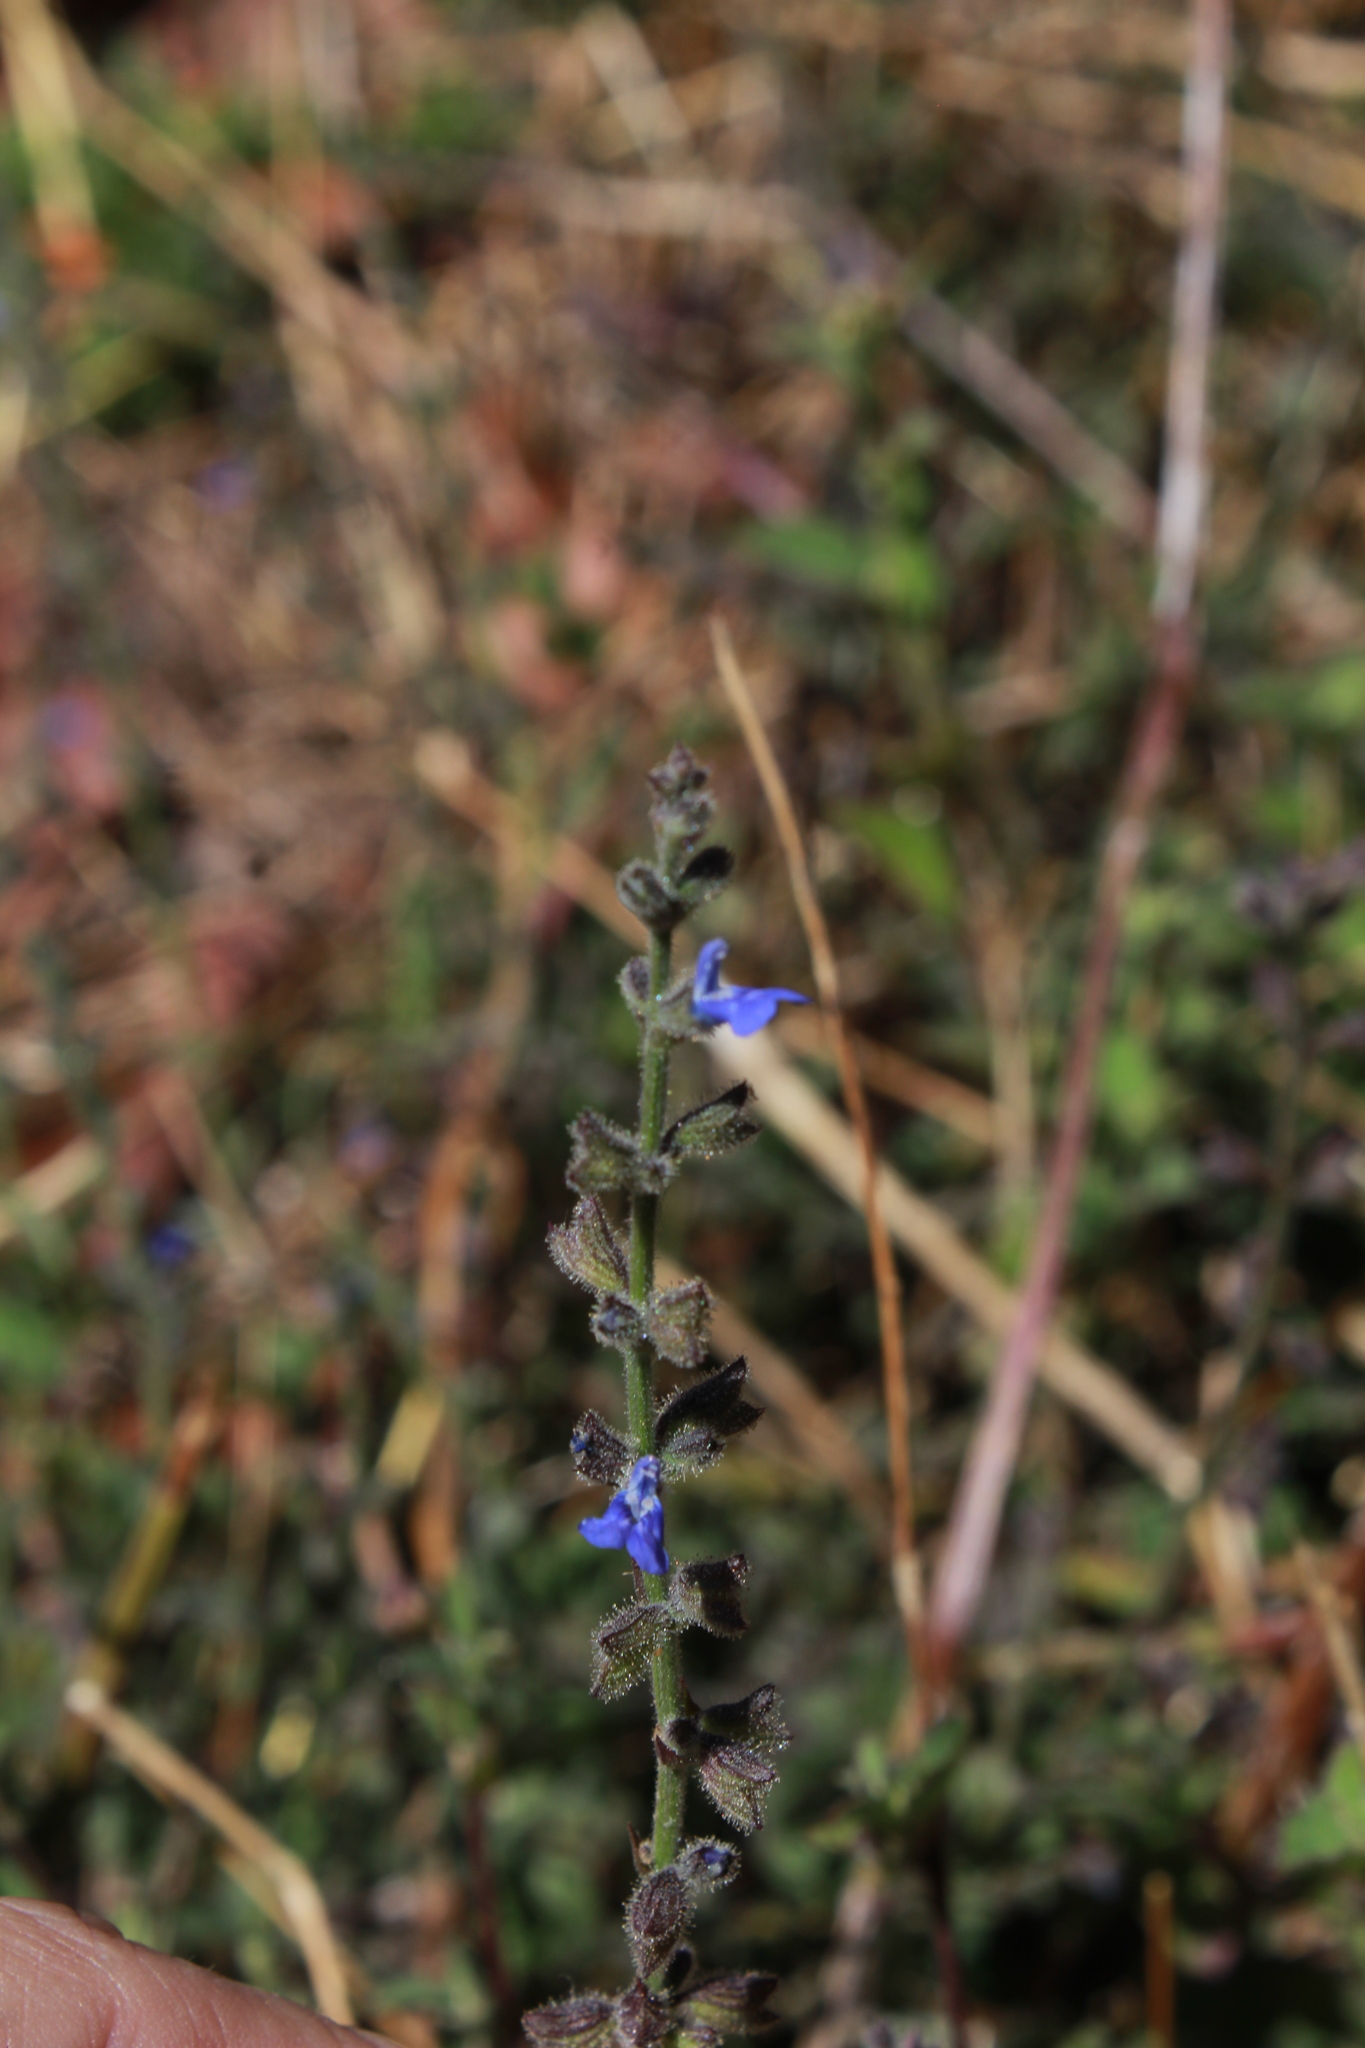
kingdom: Plantae
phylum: Tracheophyta
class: Magnoliopsida
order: Lamiales
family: Lamiaceae
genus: Salvia
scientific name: Salvia misella
